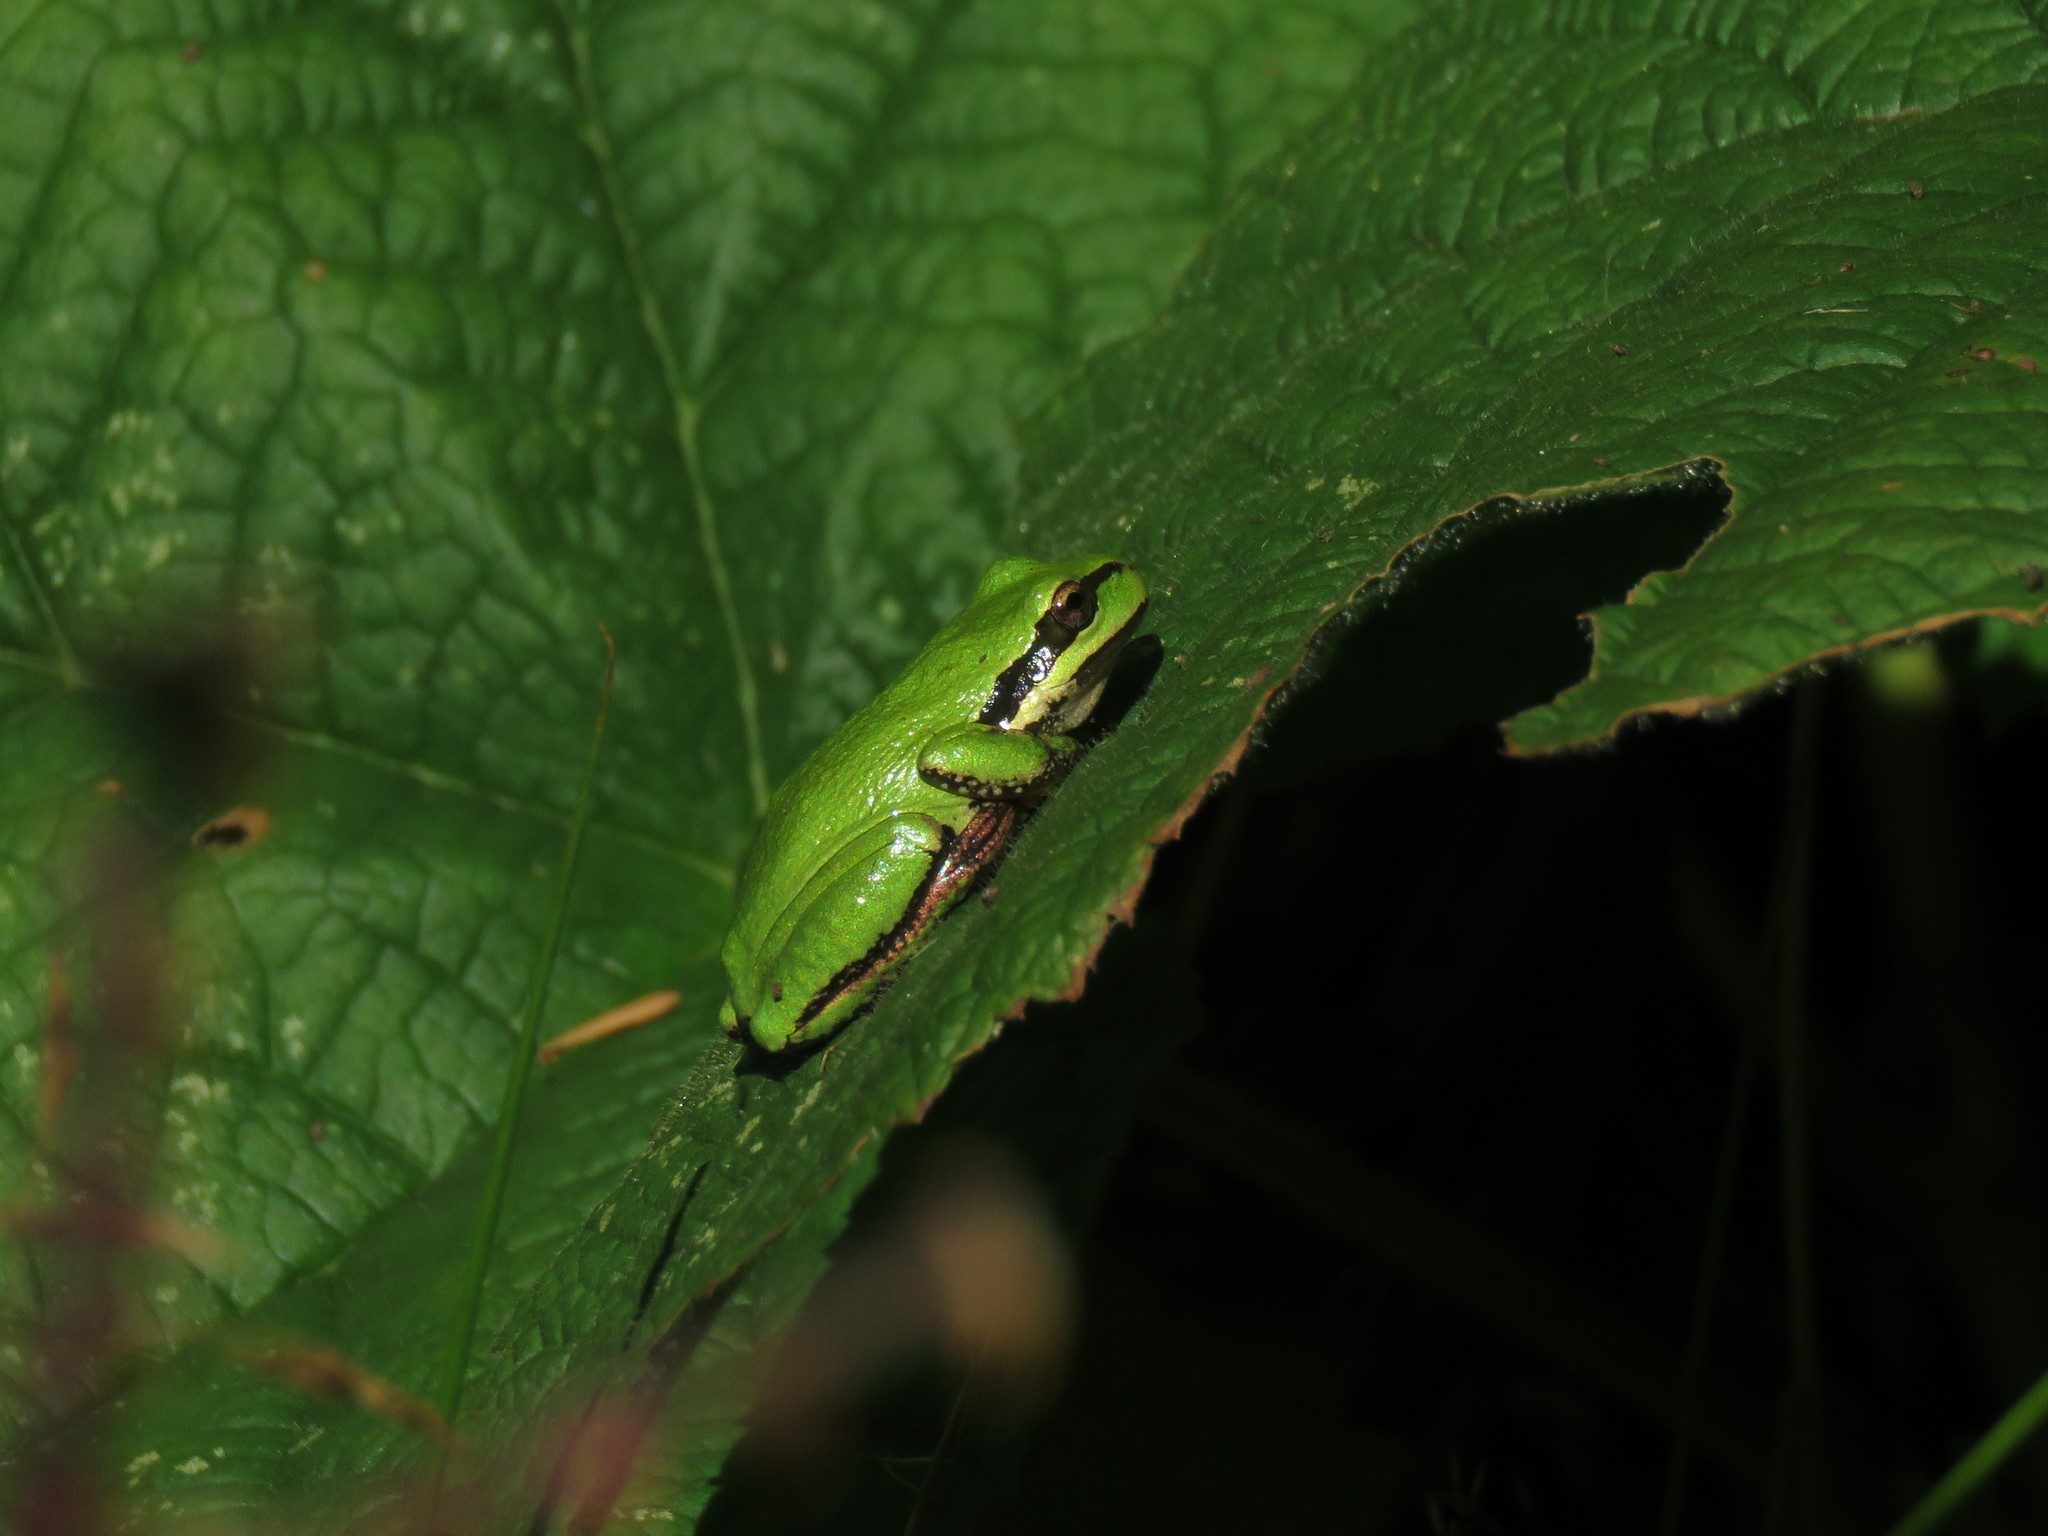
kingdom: Animalia
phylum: Chordata
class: Amphibia
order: Anura
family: Hylidae
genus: Pseudacris
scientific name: Pseudacris regilla
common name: Pacific chorus frog
